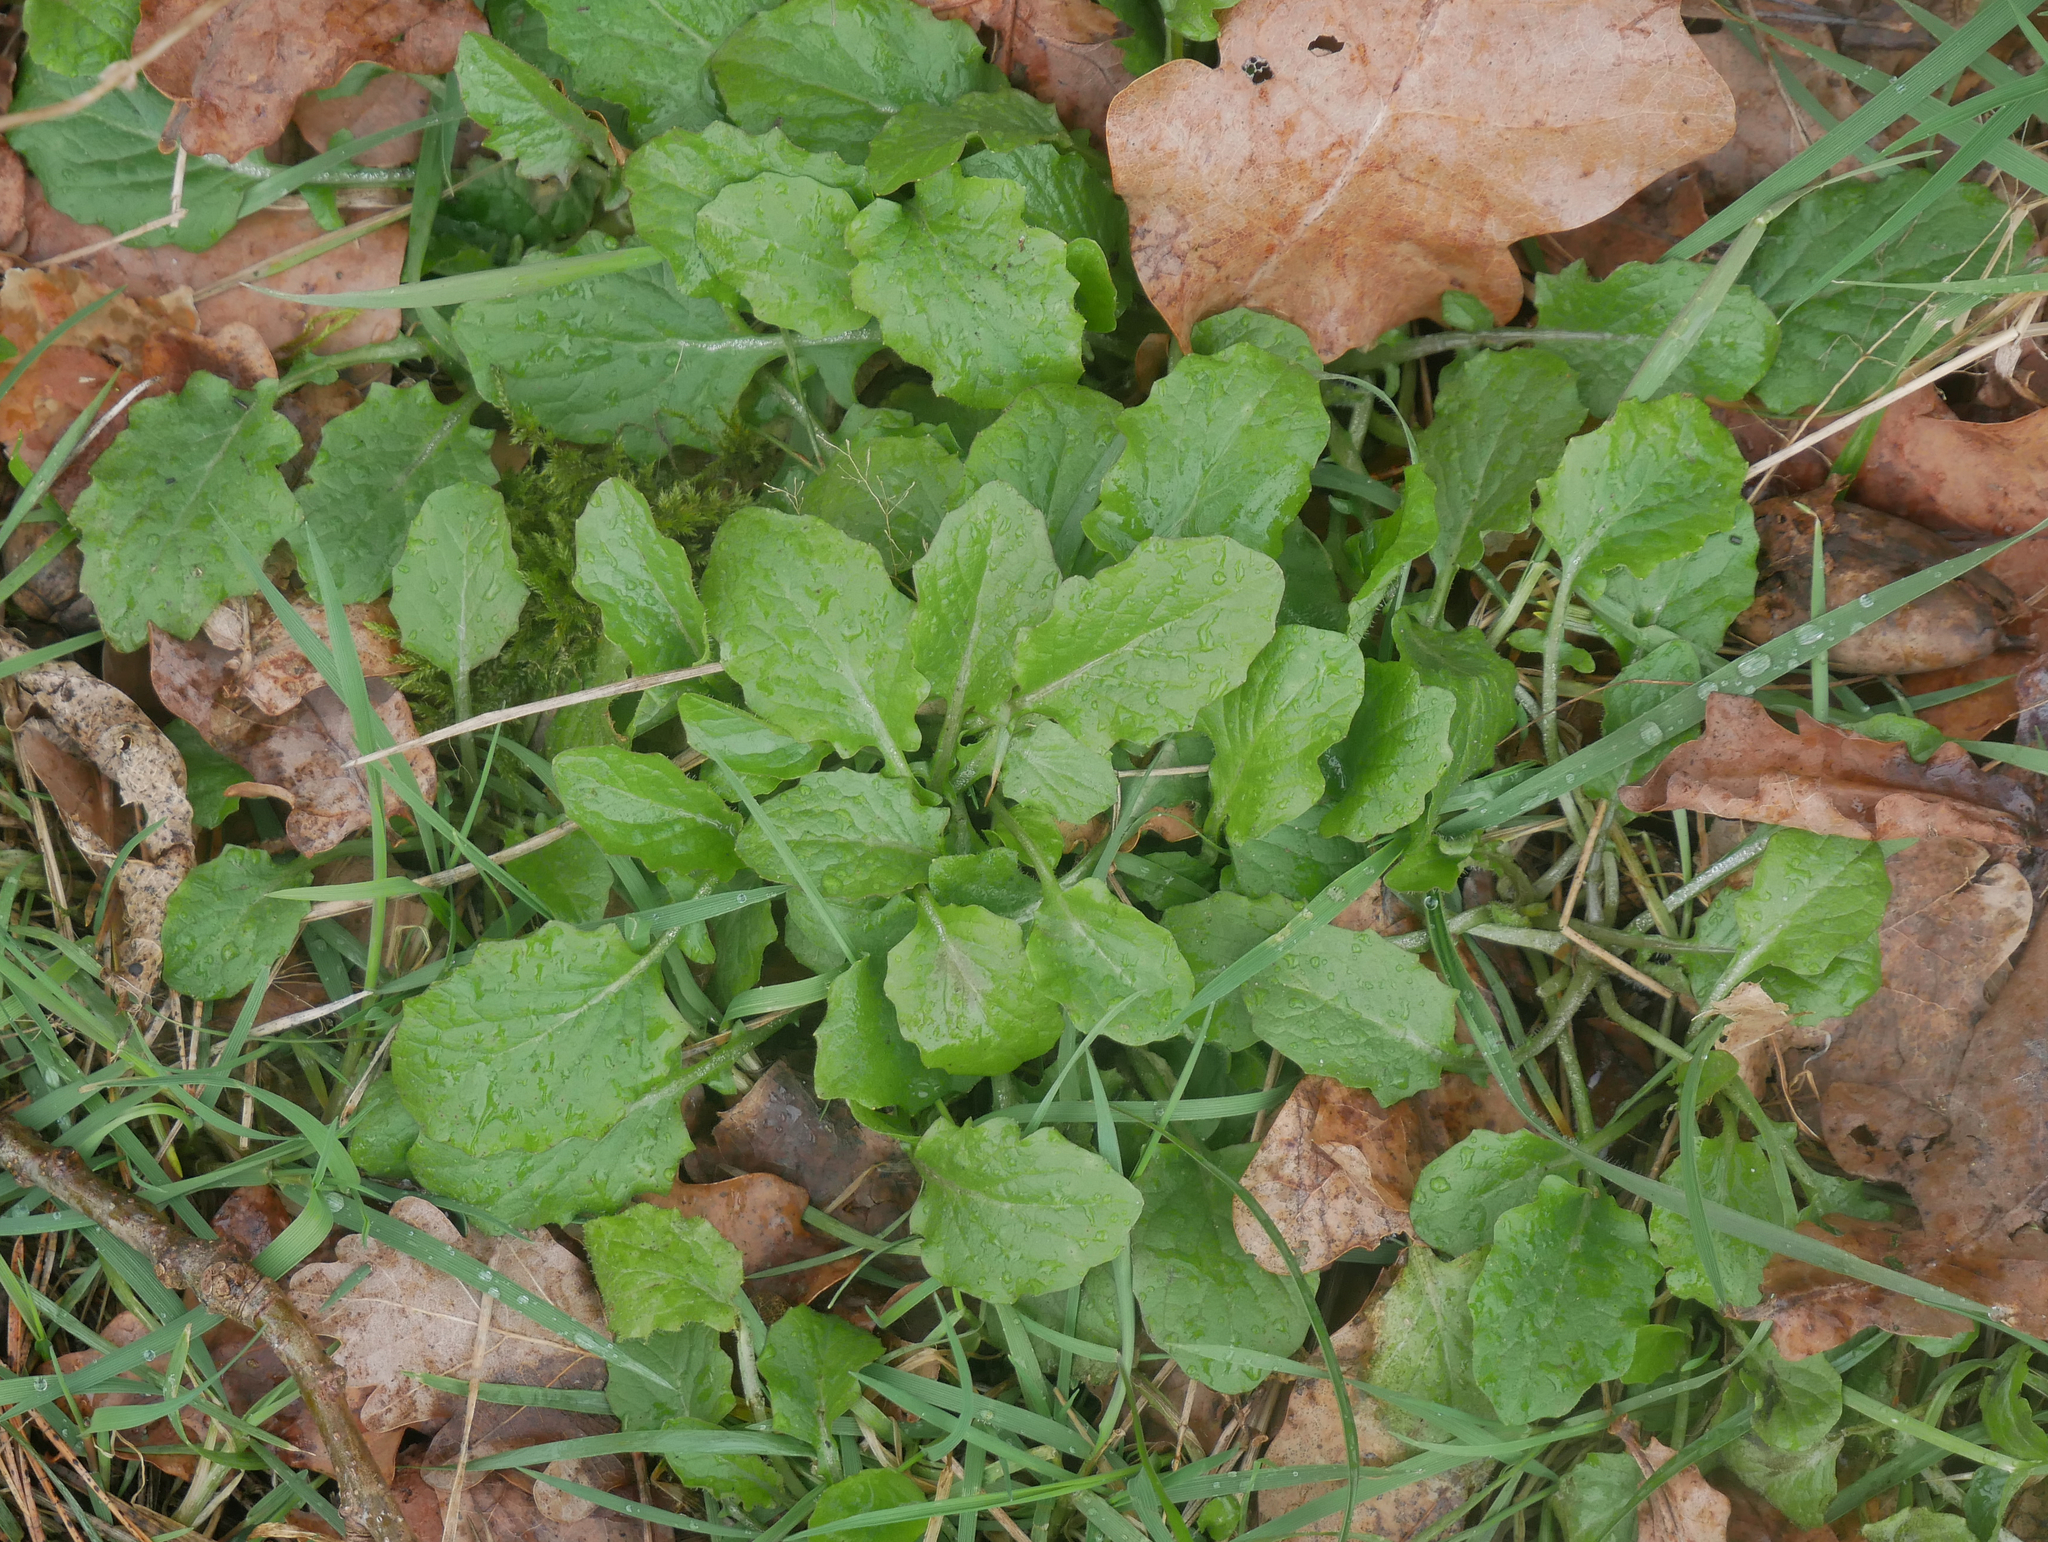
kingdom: Plantae
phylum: Tracheophyta
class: Magnoliopsida
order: Asterales
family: Asteraceae
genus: Lapsana
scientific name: Lapsana communis
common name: Nipplewort
